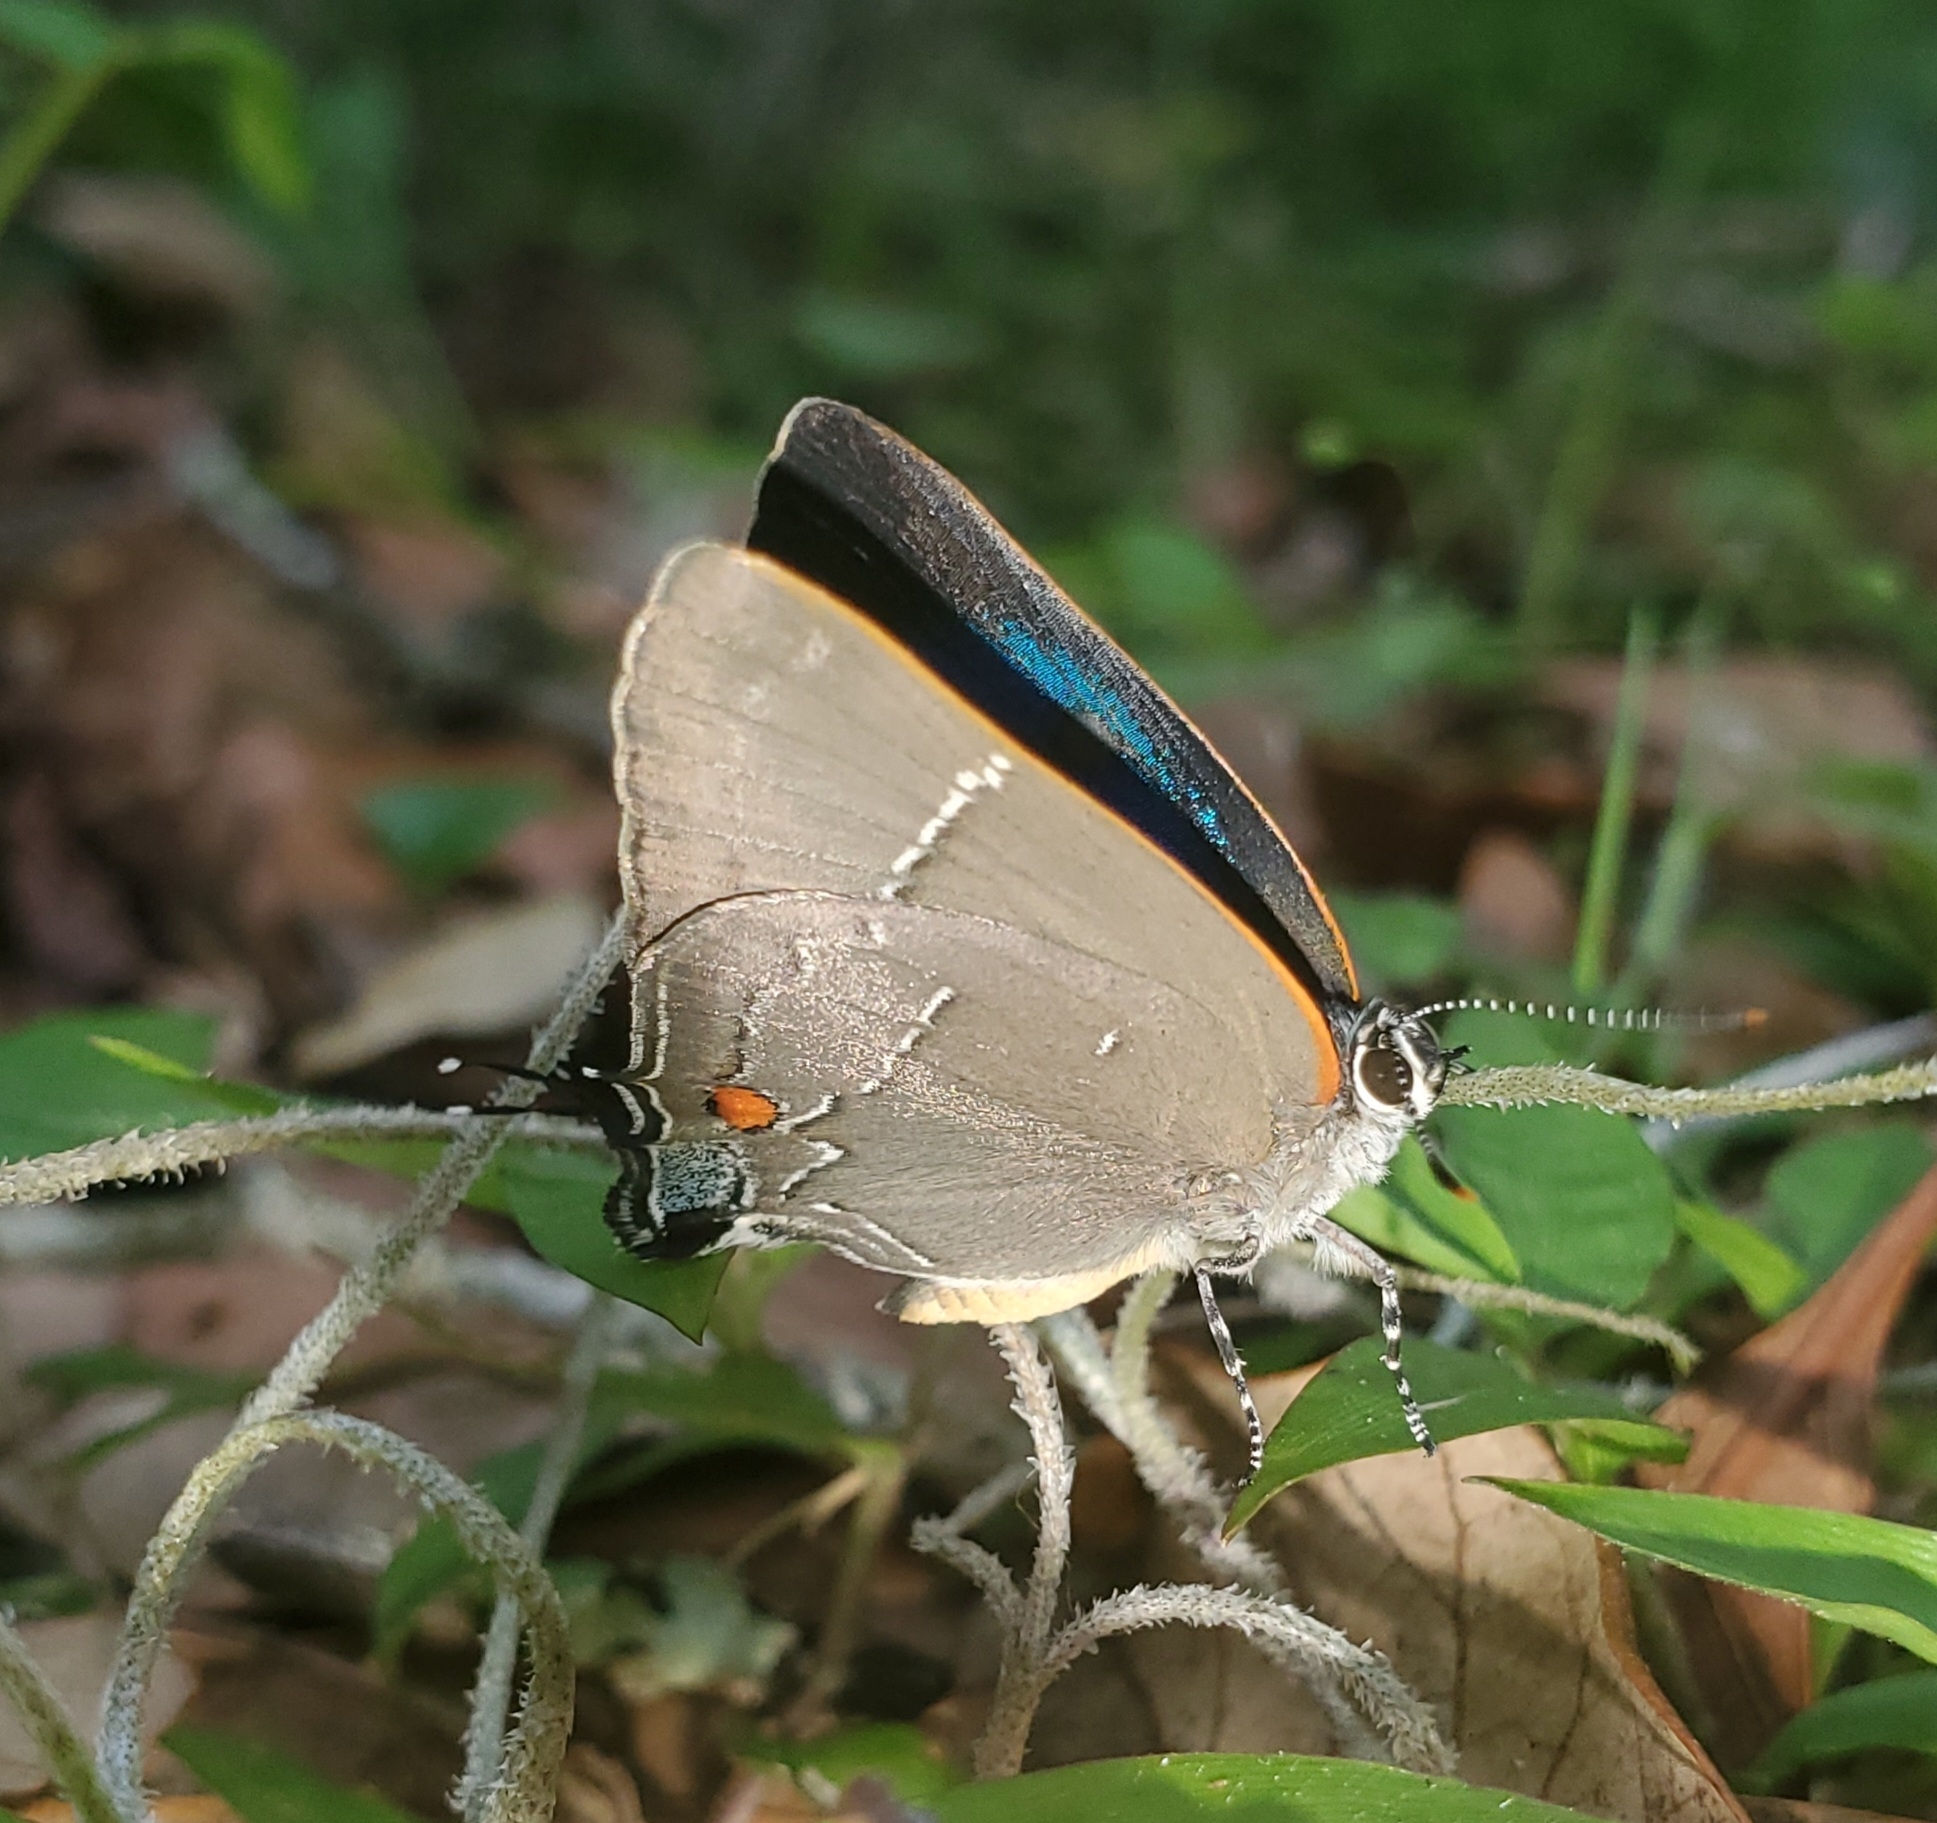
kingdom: Animalia
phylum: Arthropoda
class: Insecta
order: Lepidoptera
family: Lycaenidae
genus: Parrhasius
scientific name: Parrhasius m-album
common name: White m hairstreak
